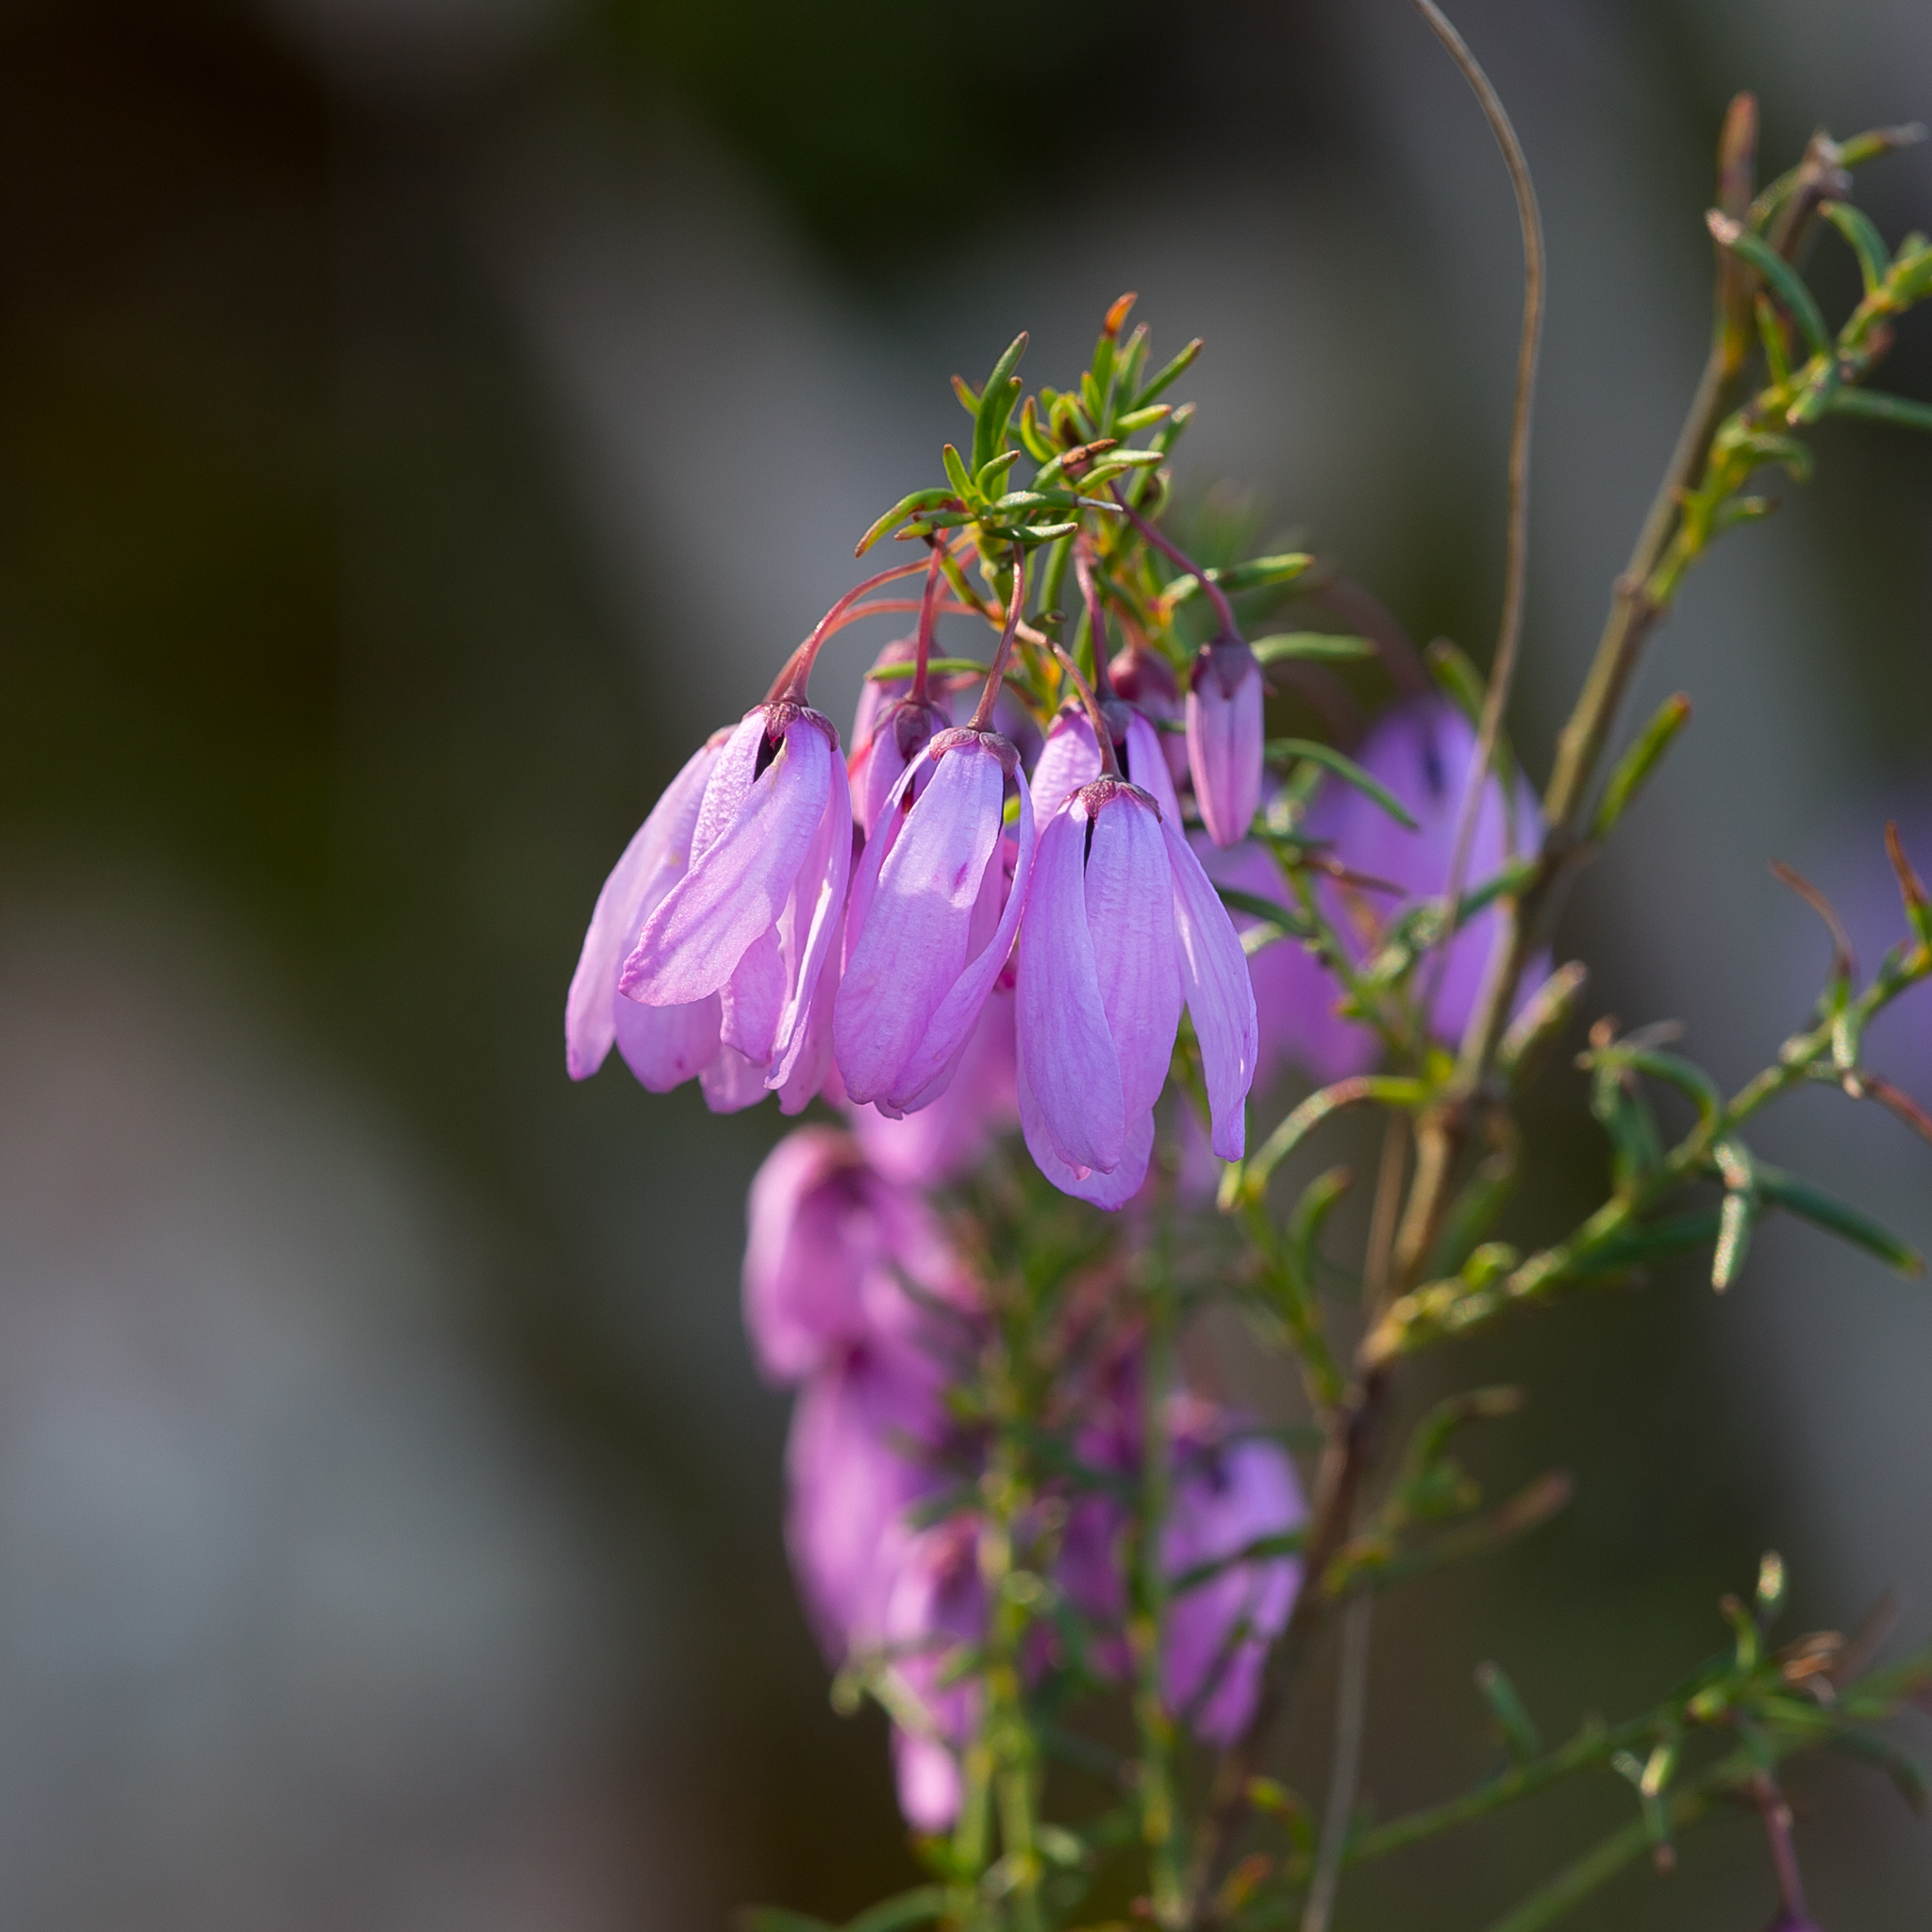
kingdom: Plantae
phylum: Tracheophyta
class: Magnoliopsida
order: Oxalidales
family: Elaeocarpaceae
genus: Tetratheca
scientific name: Tetratheca pilosa
